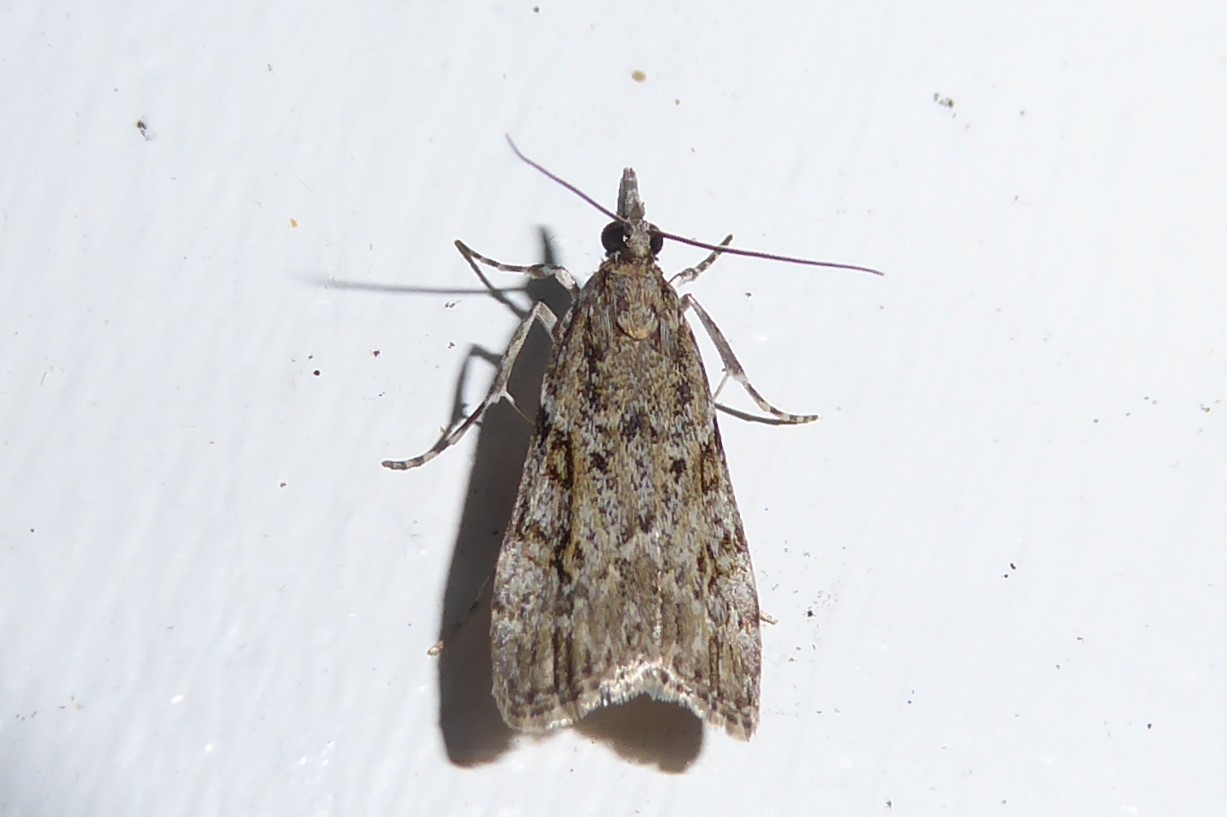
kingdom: Animalia
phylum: Arthropoda
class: Insecta
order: Lepidoptera
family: Crambidae
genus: Eudonia
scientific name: Eudonia diphtheralis
